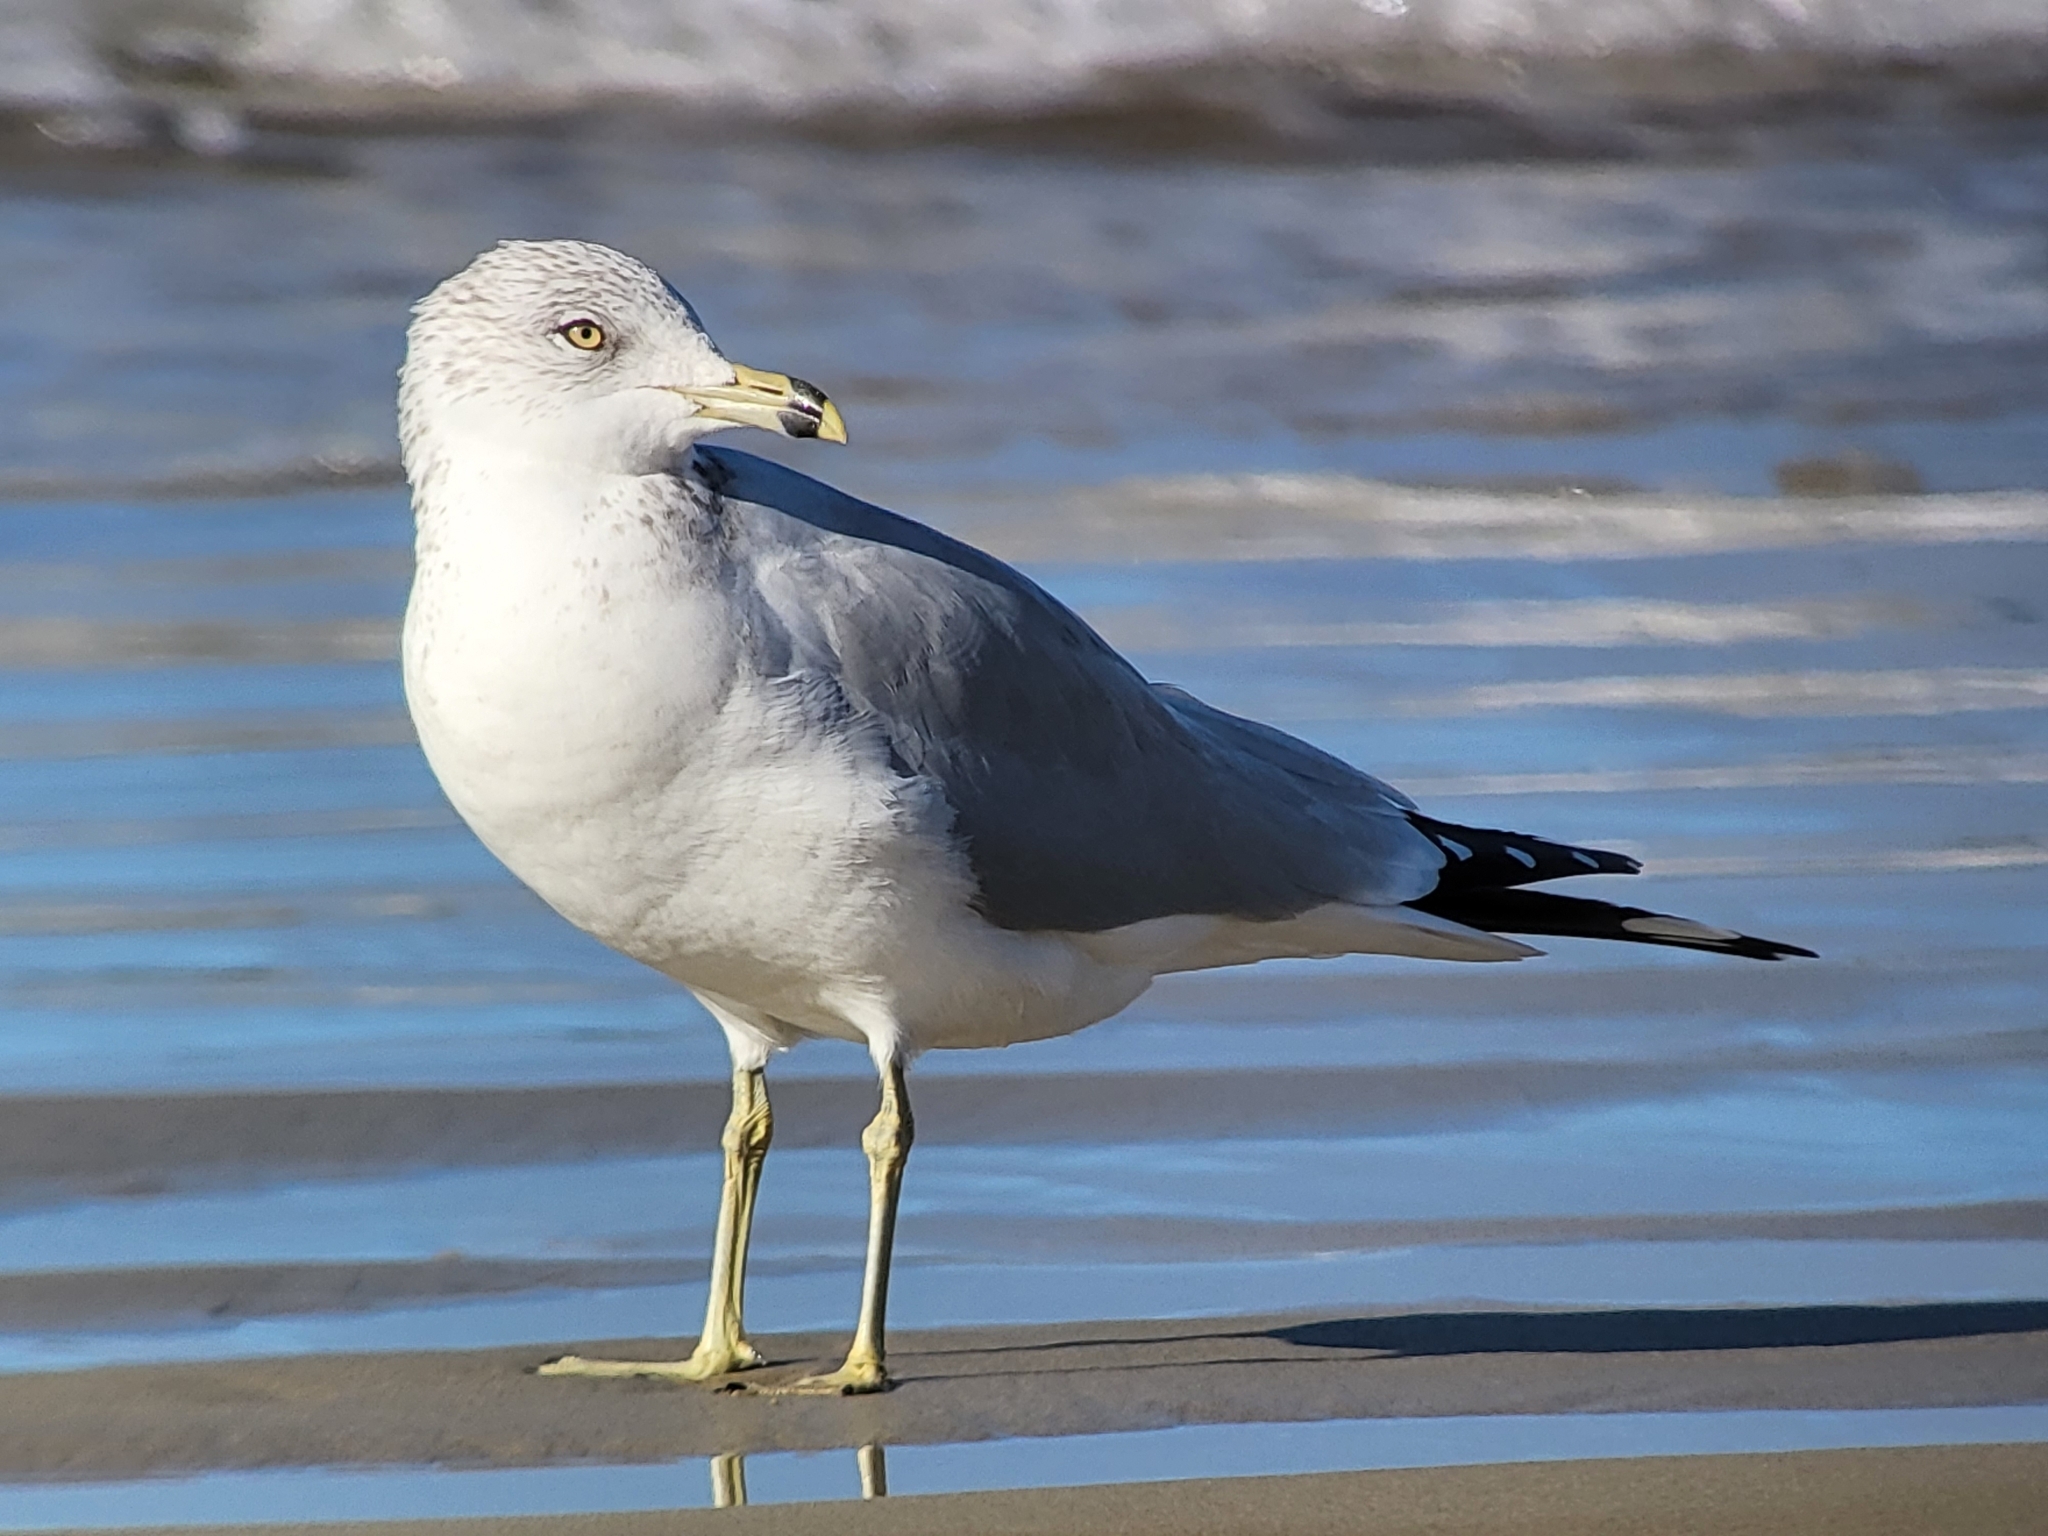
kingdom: Animalia
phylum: Chordata
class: Aves
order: Charadriiformes
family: Laridae
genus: Larus
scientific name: Larus delawarensis
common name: Ring-billed gull
